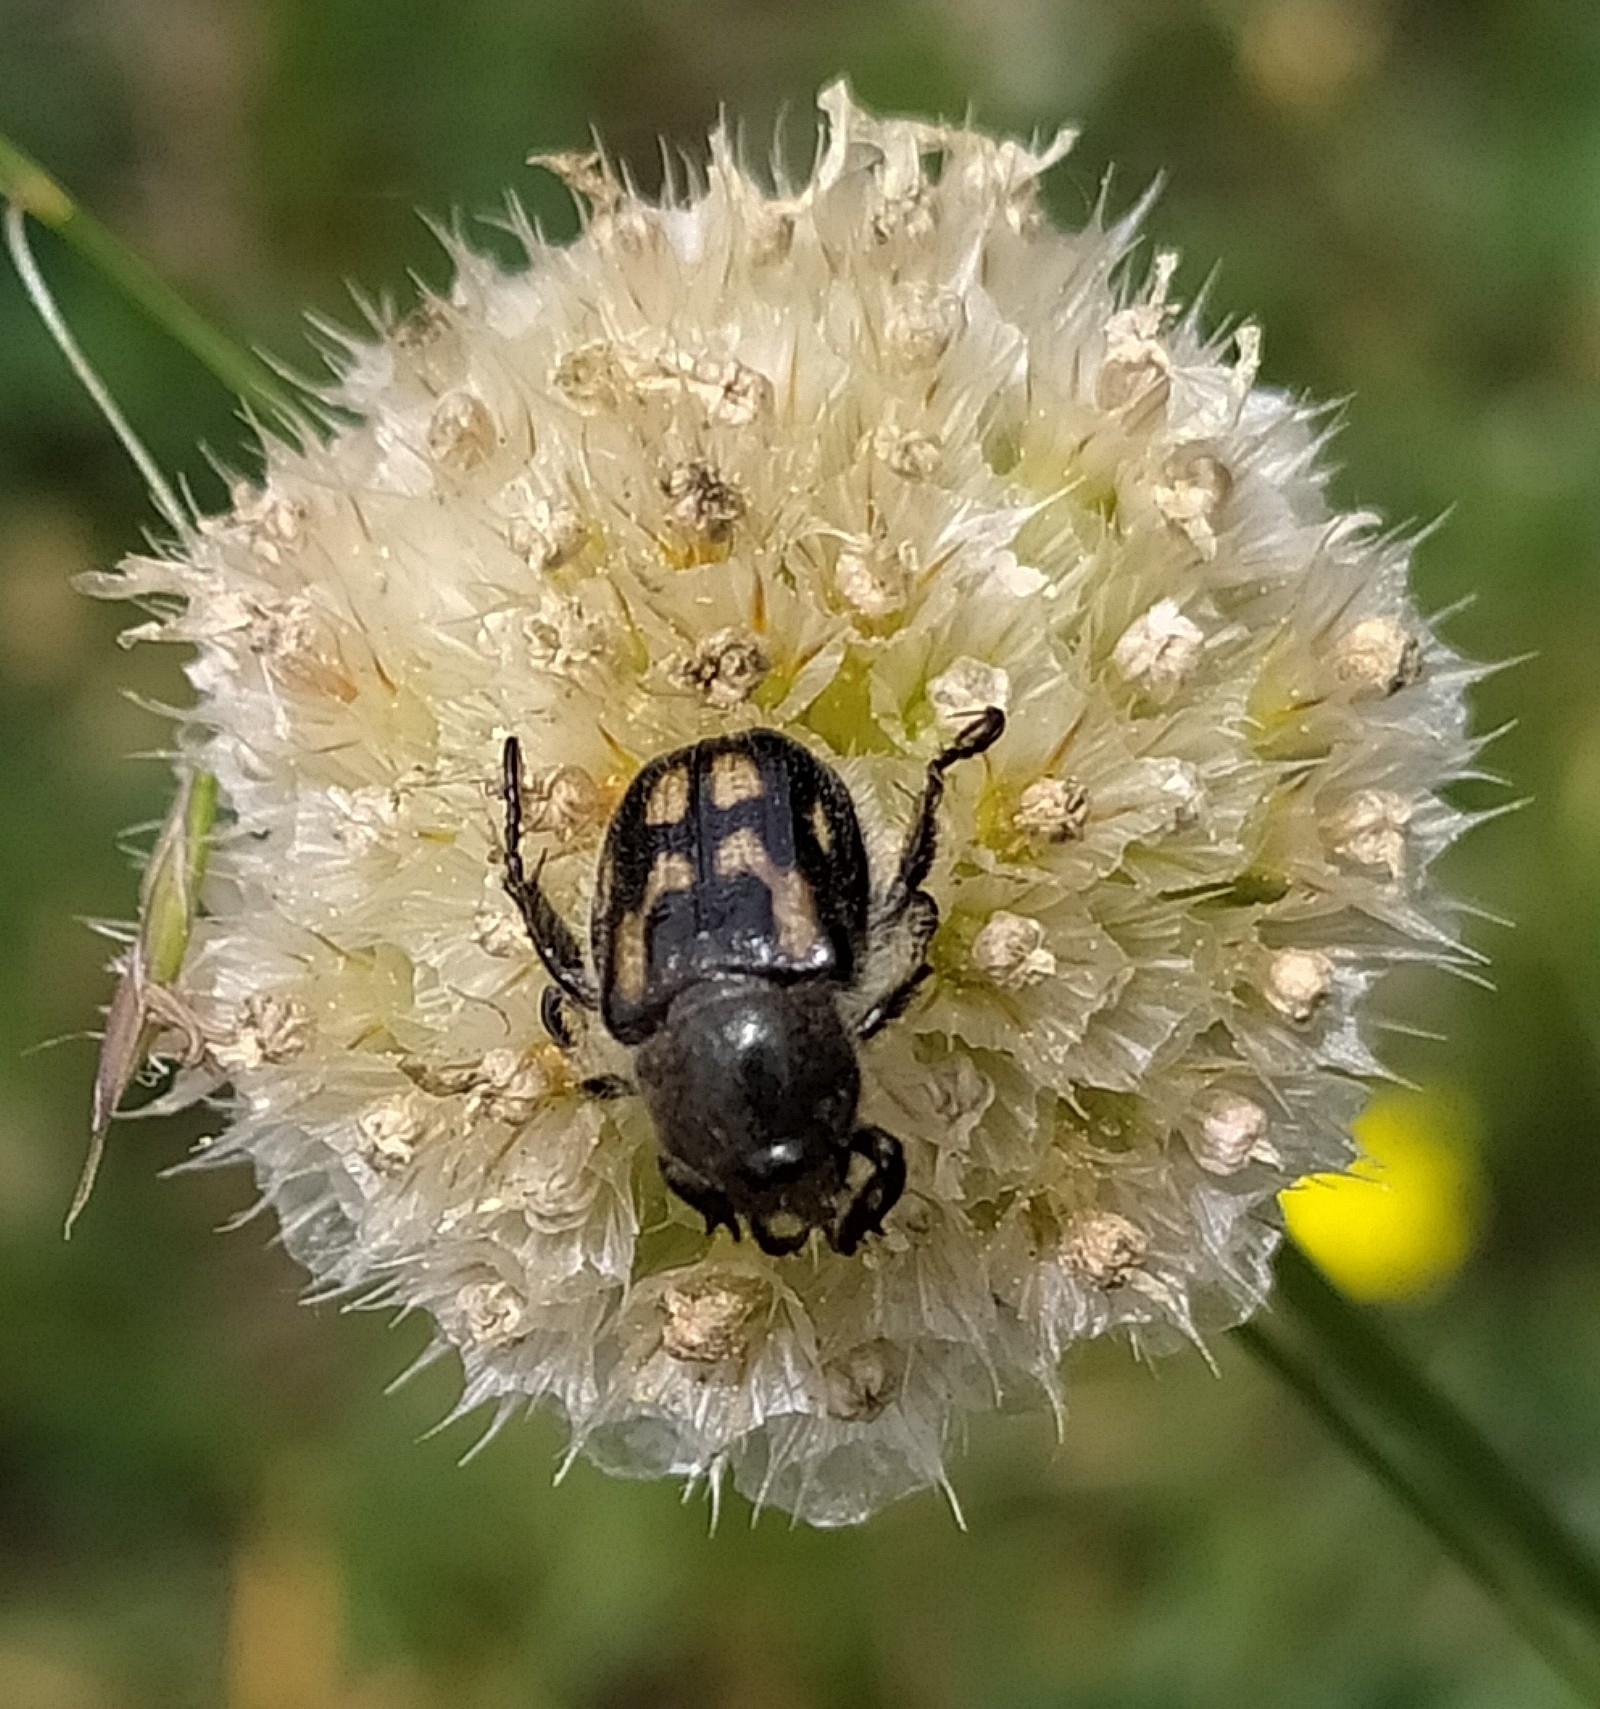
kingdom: Animalia
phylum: Arthropoda
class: Insecta
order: Coleoptera
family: Scarabaeidae
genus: Anisoplia
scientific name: Anisoplia monticola
